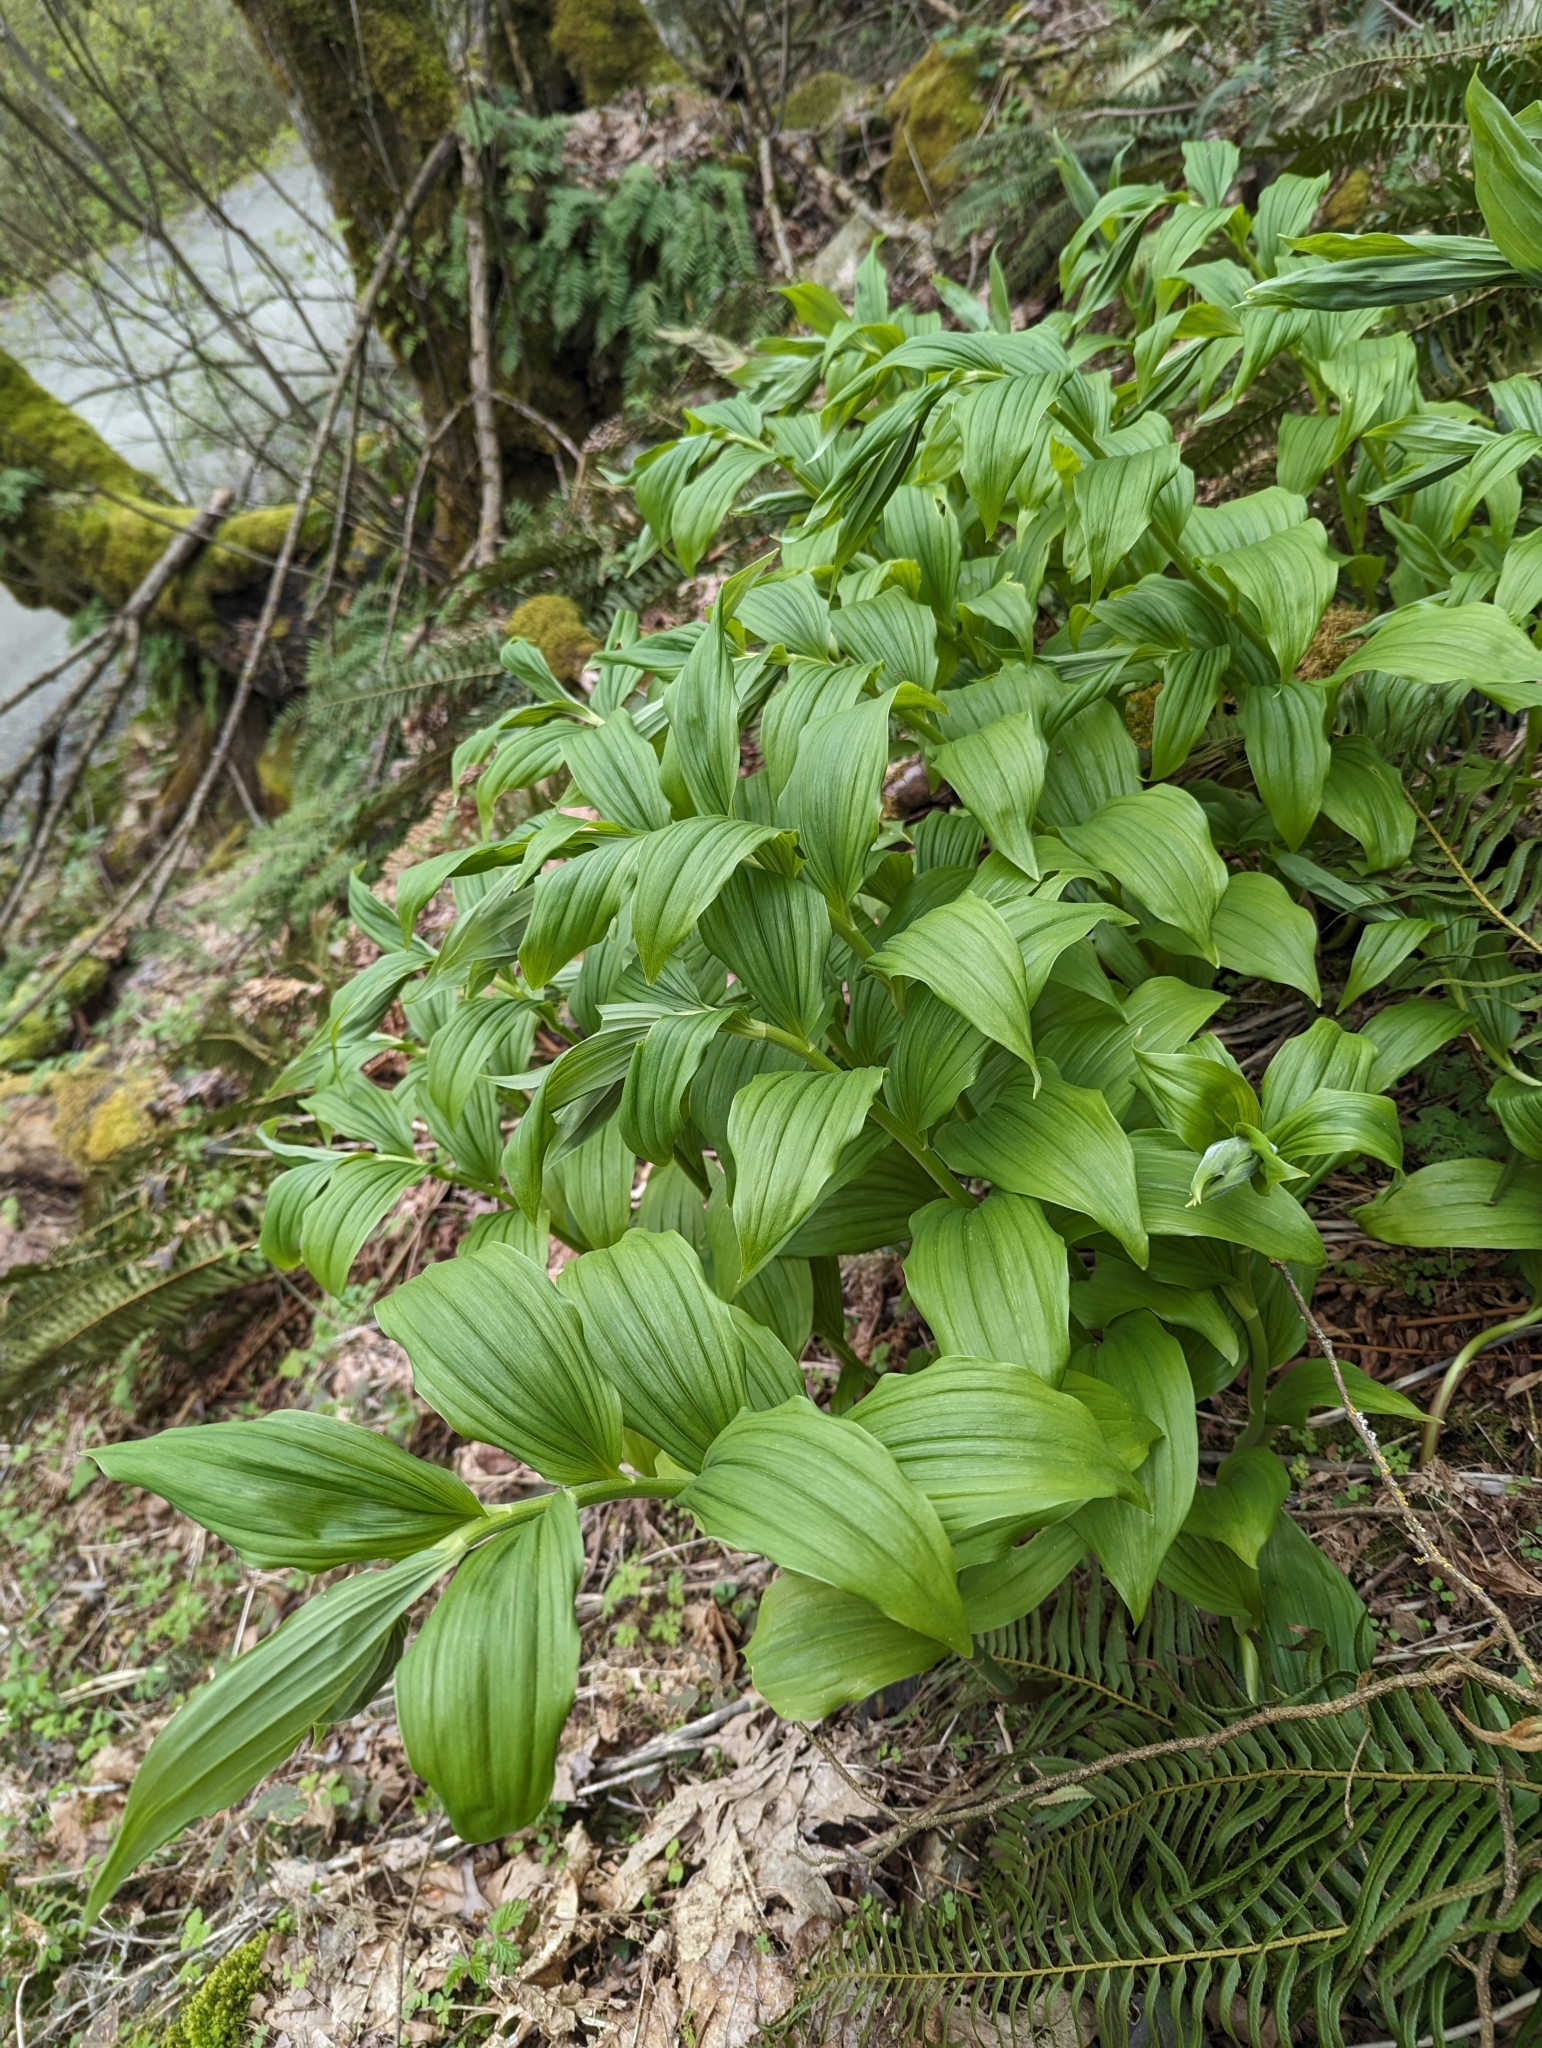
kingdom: Plantae
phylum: Tracheophyta
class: Liliopsida
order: Asparagales
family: Asparagaceae
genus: Maianthemum
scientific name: Maianthemum racemosum
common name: False spikenard
